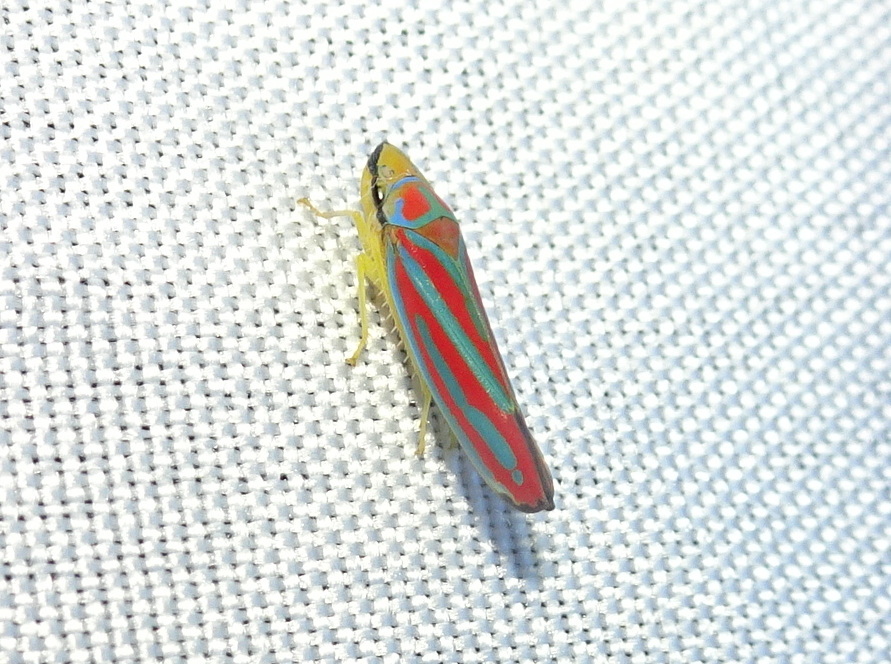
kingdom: Animalia
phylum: Arthropoda
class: Insecta
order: Hemiptera
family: Cicadellidae
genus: Graphocephala
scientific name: Graphocephala coccinea
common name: Candy-striped leafhopper
